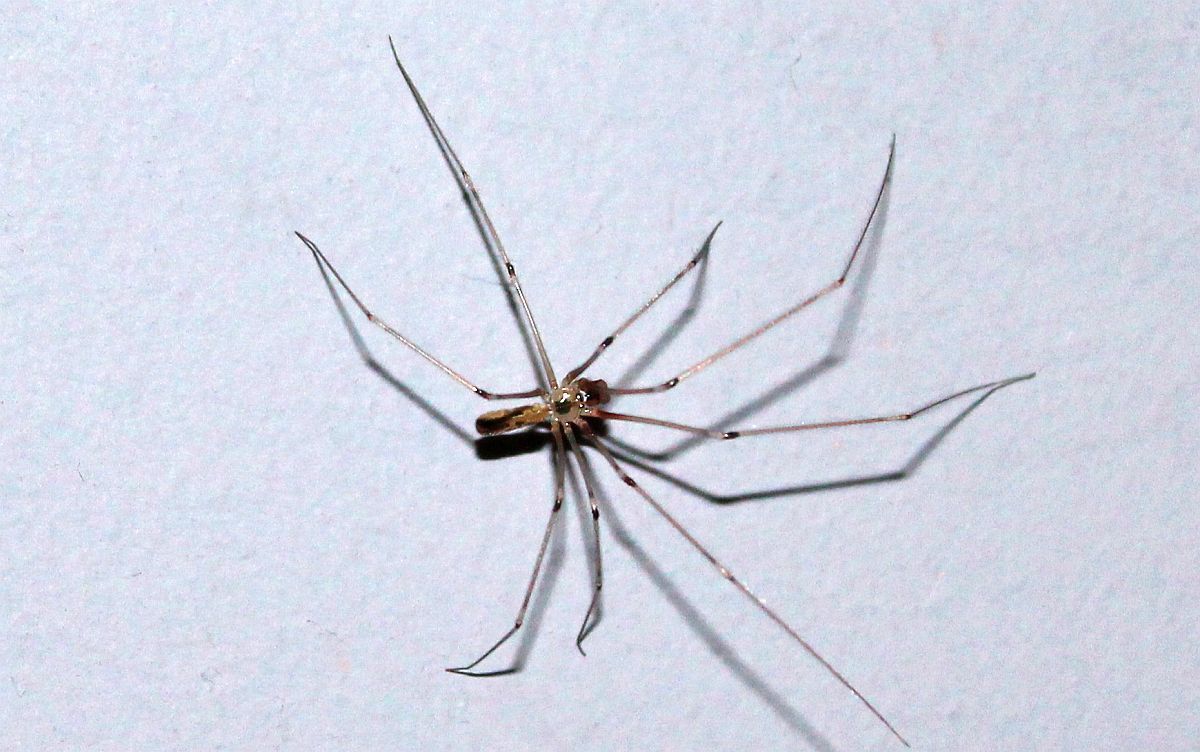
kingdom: Animalia
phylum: Arthropoda
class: Arachnida
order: Araneae
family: Pholcidae
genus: Pholcus
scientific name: Pholcus phalangioides
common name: Longbodied cellar spider
